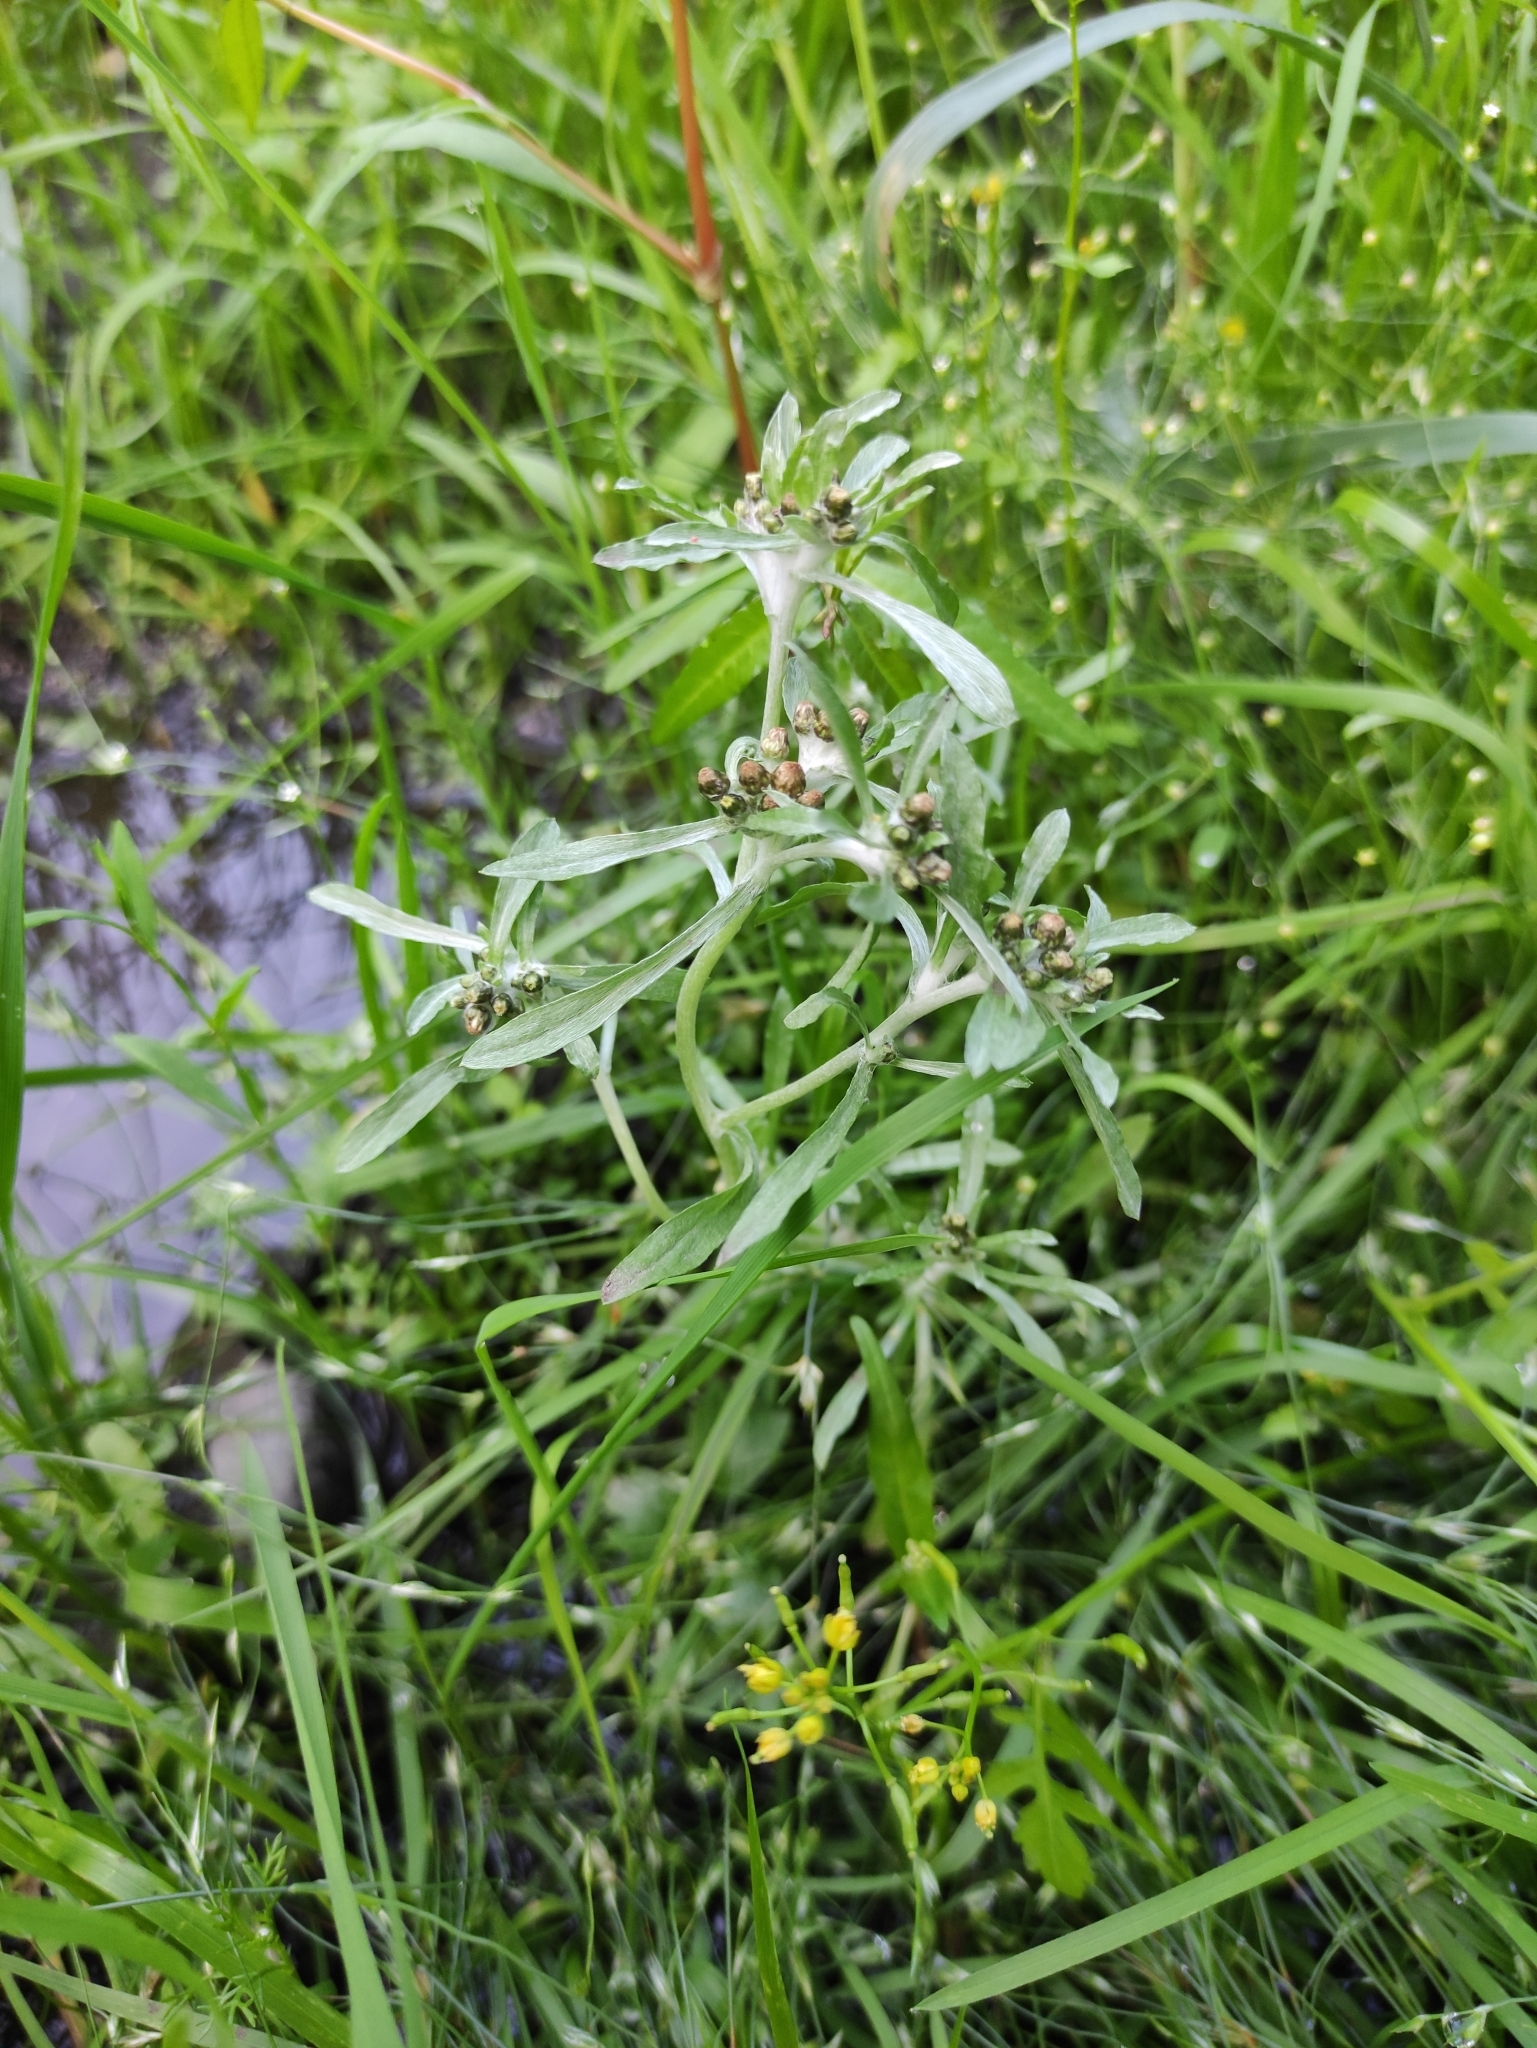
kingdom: Plantae
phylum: Tracheophyta
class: Magnoliopsida
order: Asterales
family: Asteraceae
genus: Gnaphalium
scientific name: Gnaphalium uliginosum
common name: Marsh cudweed
